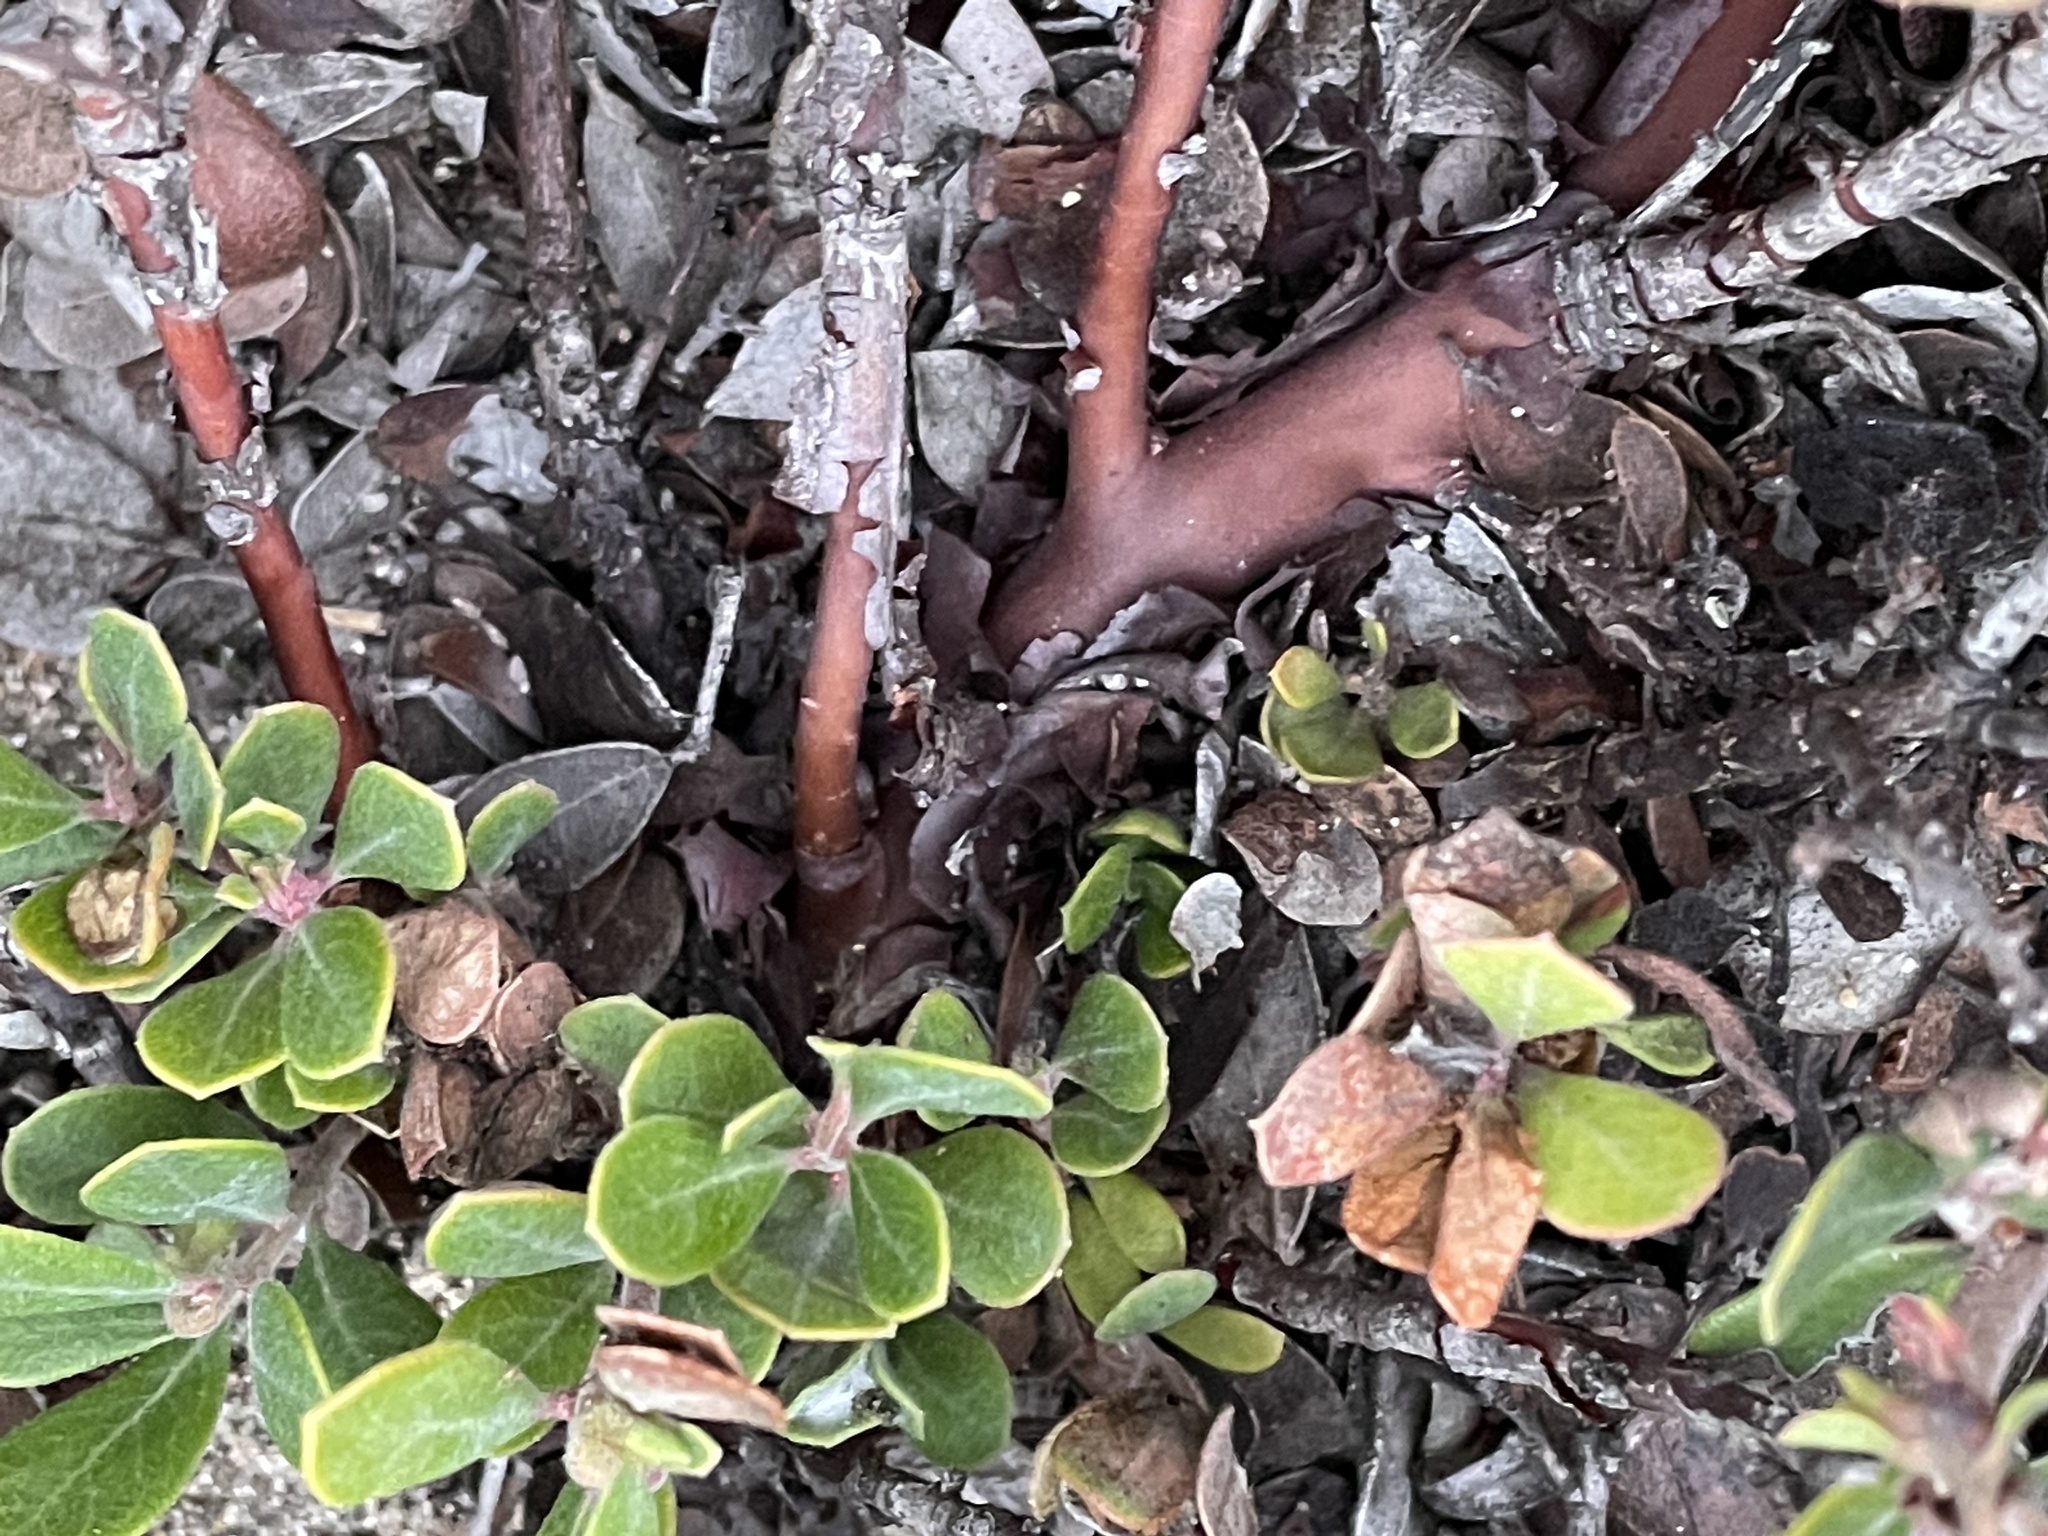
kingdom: Plantae
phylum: Tracheophyta
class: Magnoliopsida
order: Ericales
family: Ericaceae
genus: Arctostaphylos
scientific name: Arctostaphylos pumila
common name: Sandmat manzanita
